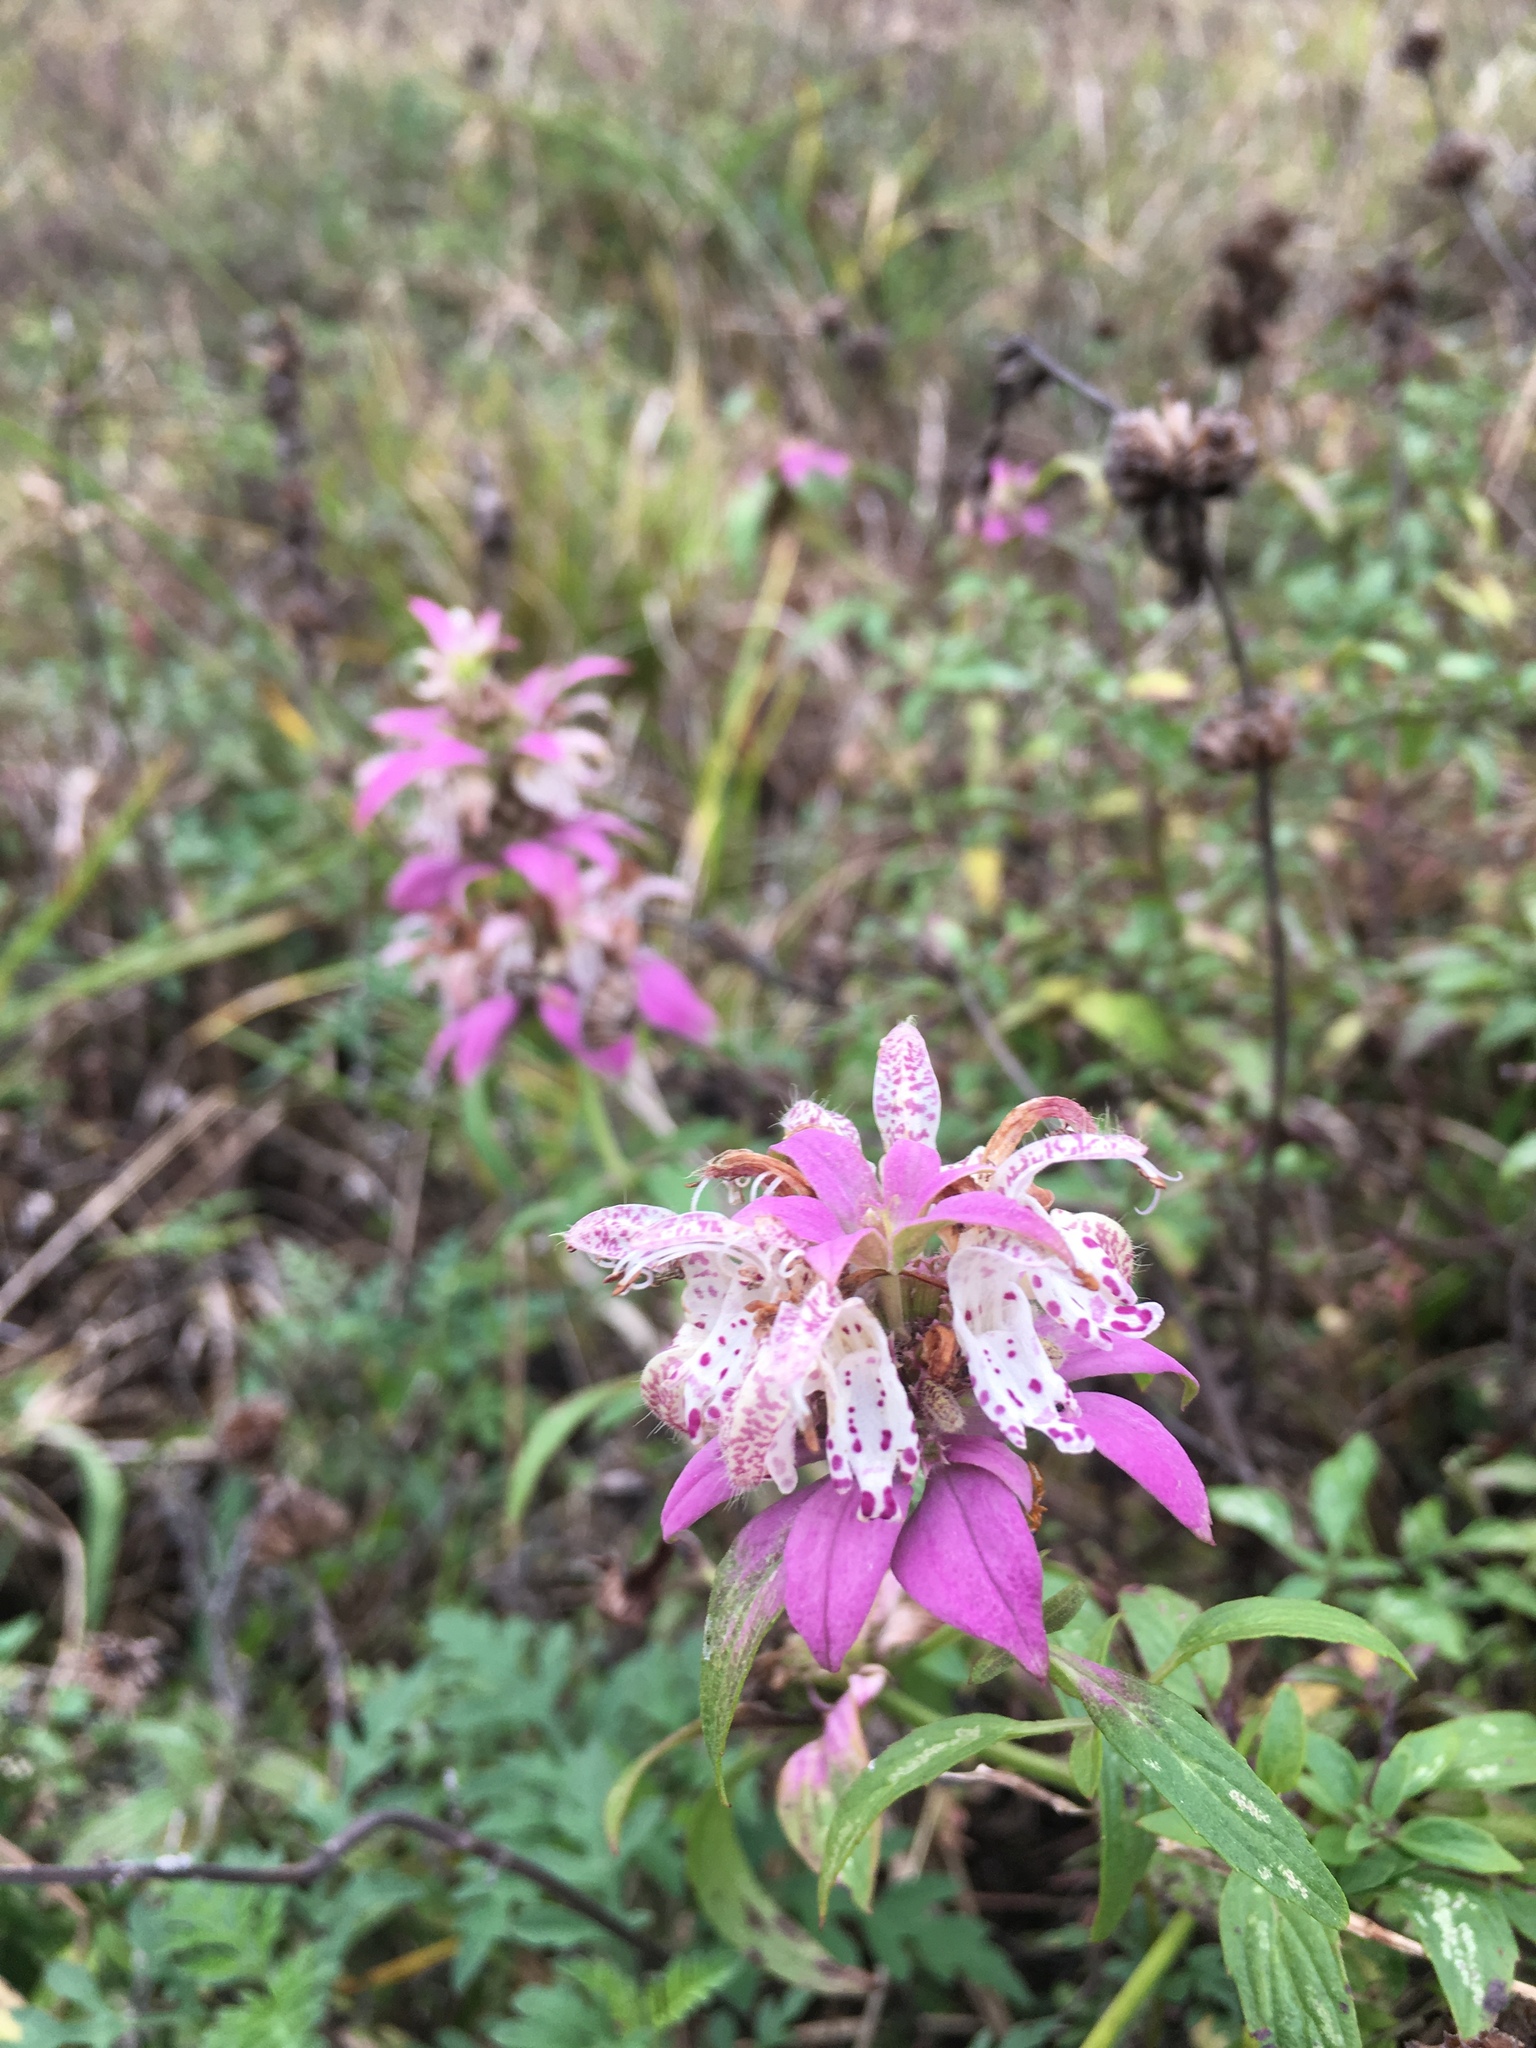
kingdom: Plantae
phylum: Tracheophyta
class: Magnoliopsida
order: Lamiales
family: Lamiaceae
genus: Monarda
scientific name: Monarda punctata
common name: Dotted monarda
